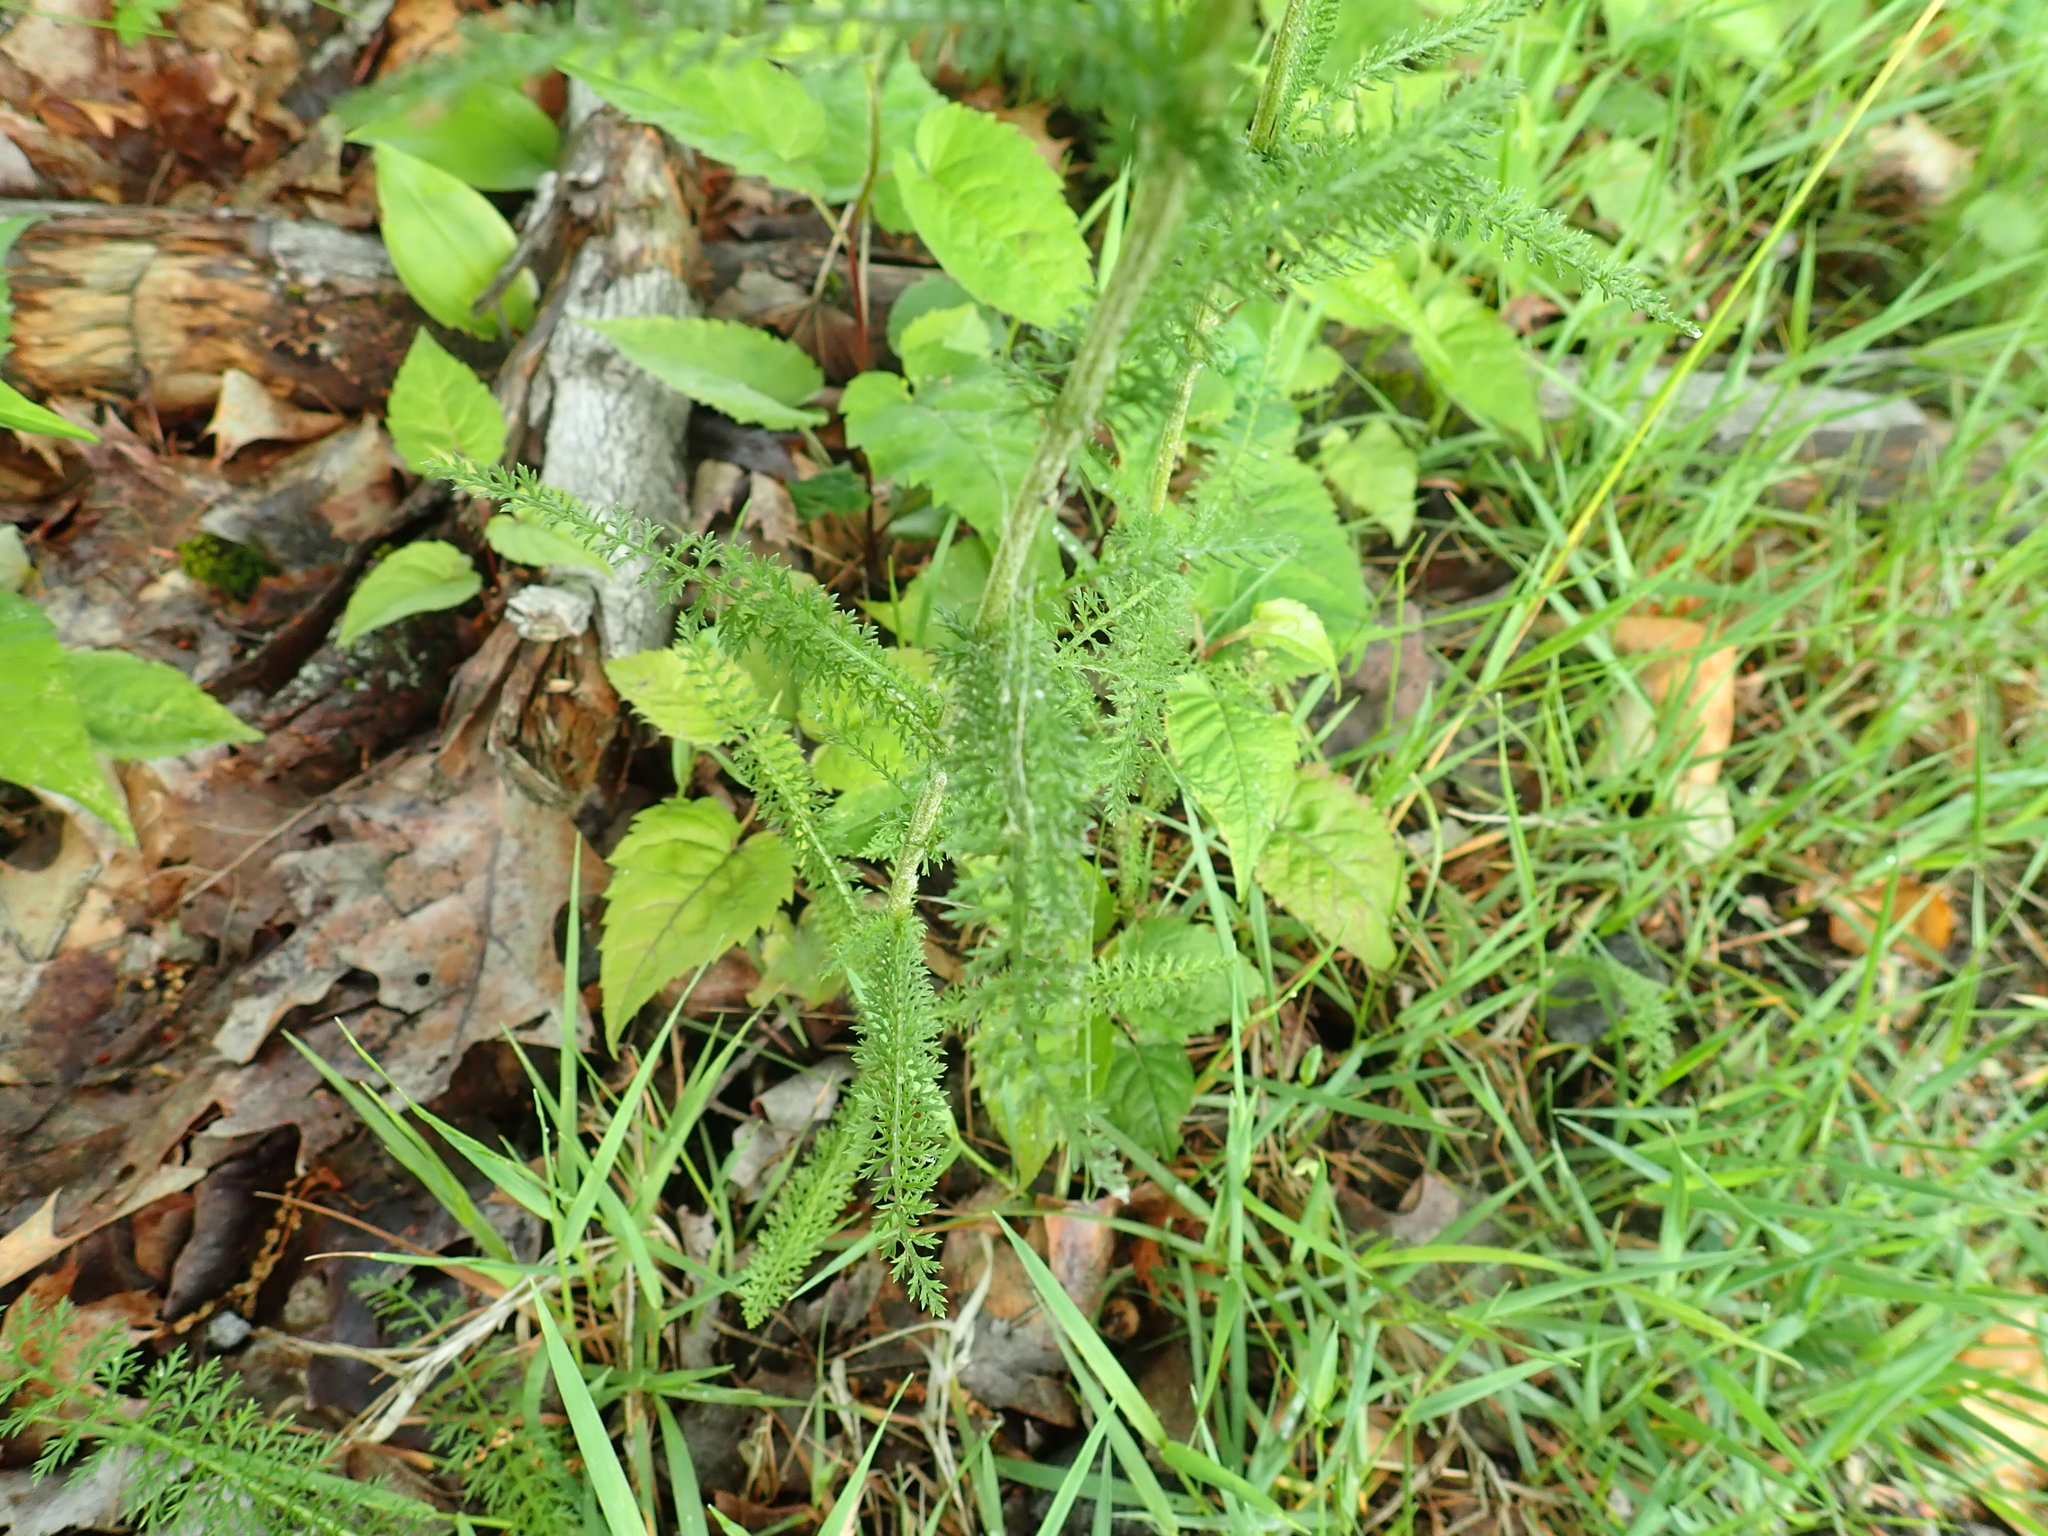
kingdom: Plantae
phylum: Tracheophyta
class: Magnoliopsida
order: Asterales
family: Asteraceae
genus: Achillea
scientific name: Achillea millefolium
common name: Yarrow
